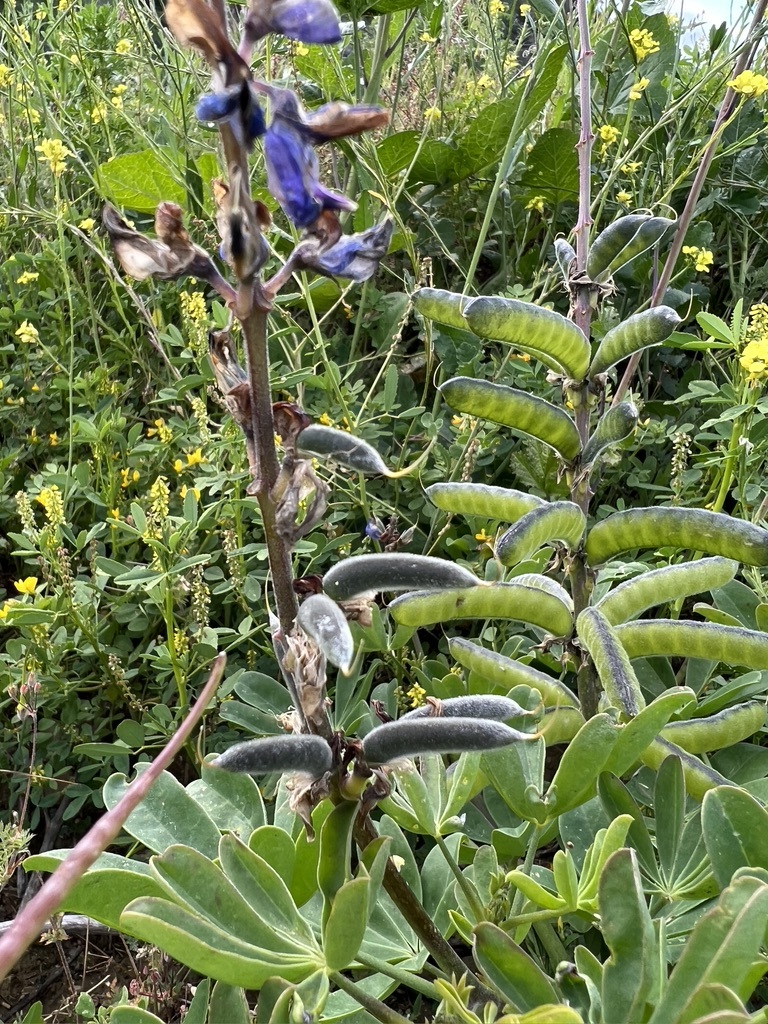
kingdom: Plantae
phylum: Tracheophyta
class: Magnoliopsida
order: Fabales
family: Fabaceae
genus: Lupinus
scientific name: Lupinus succulentus
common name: Arroyo lupine
